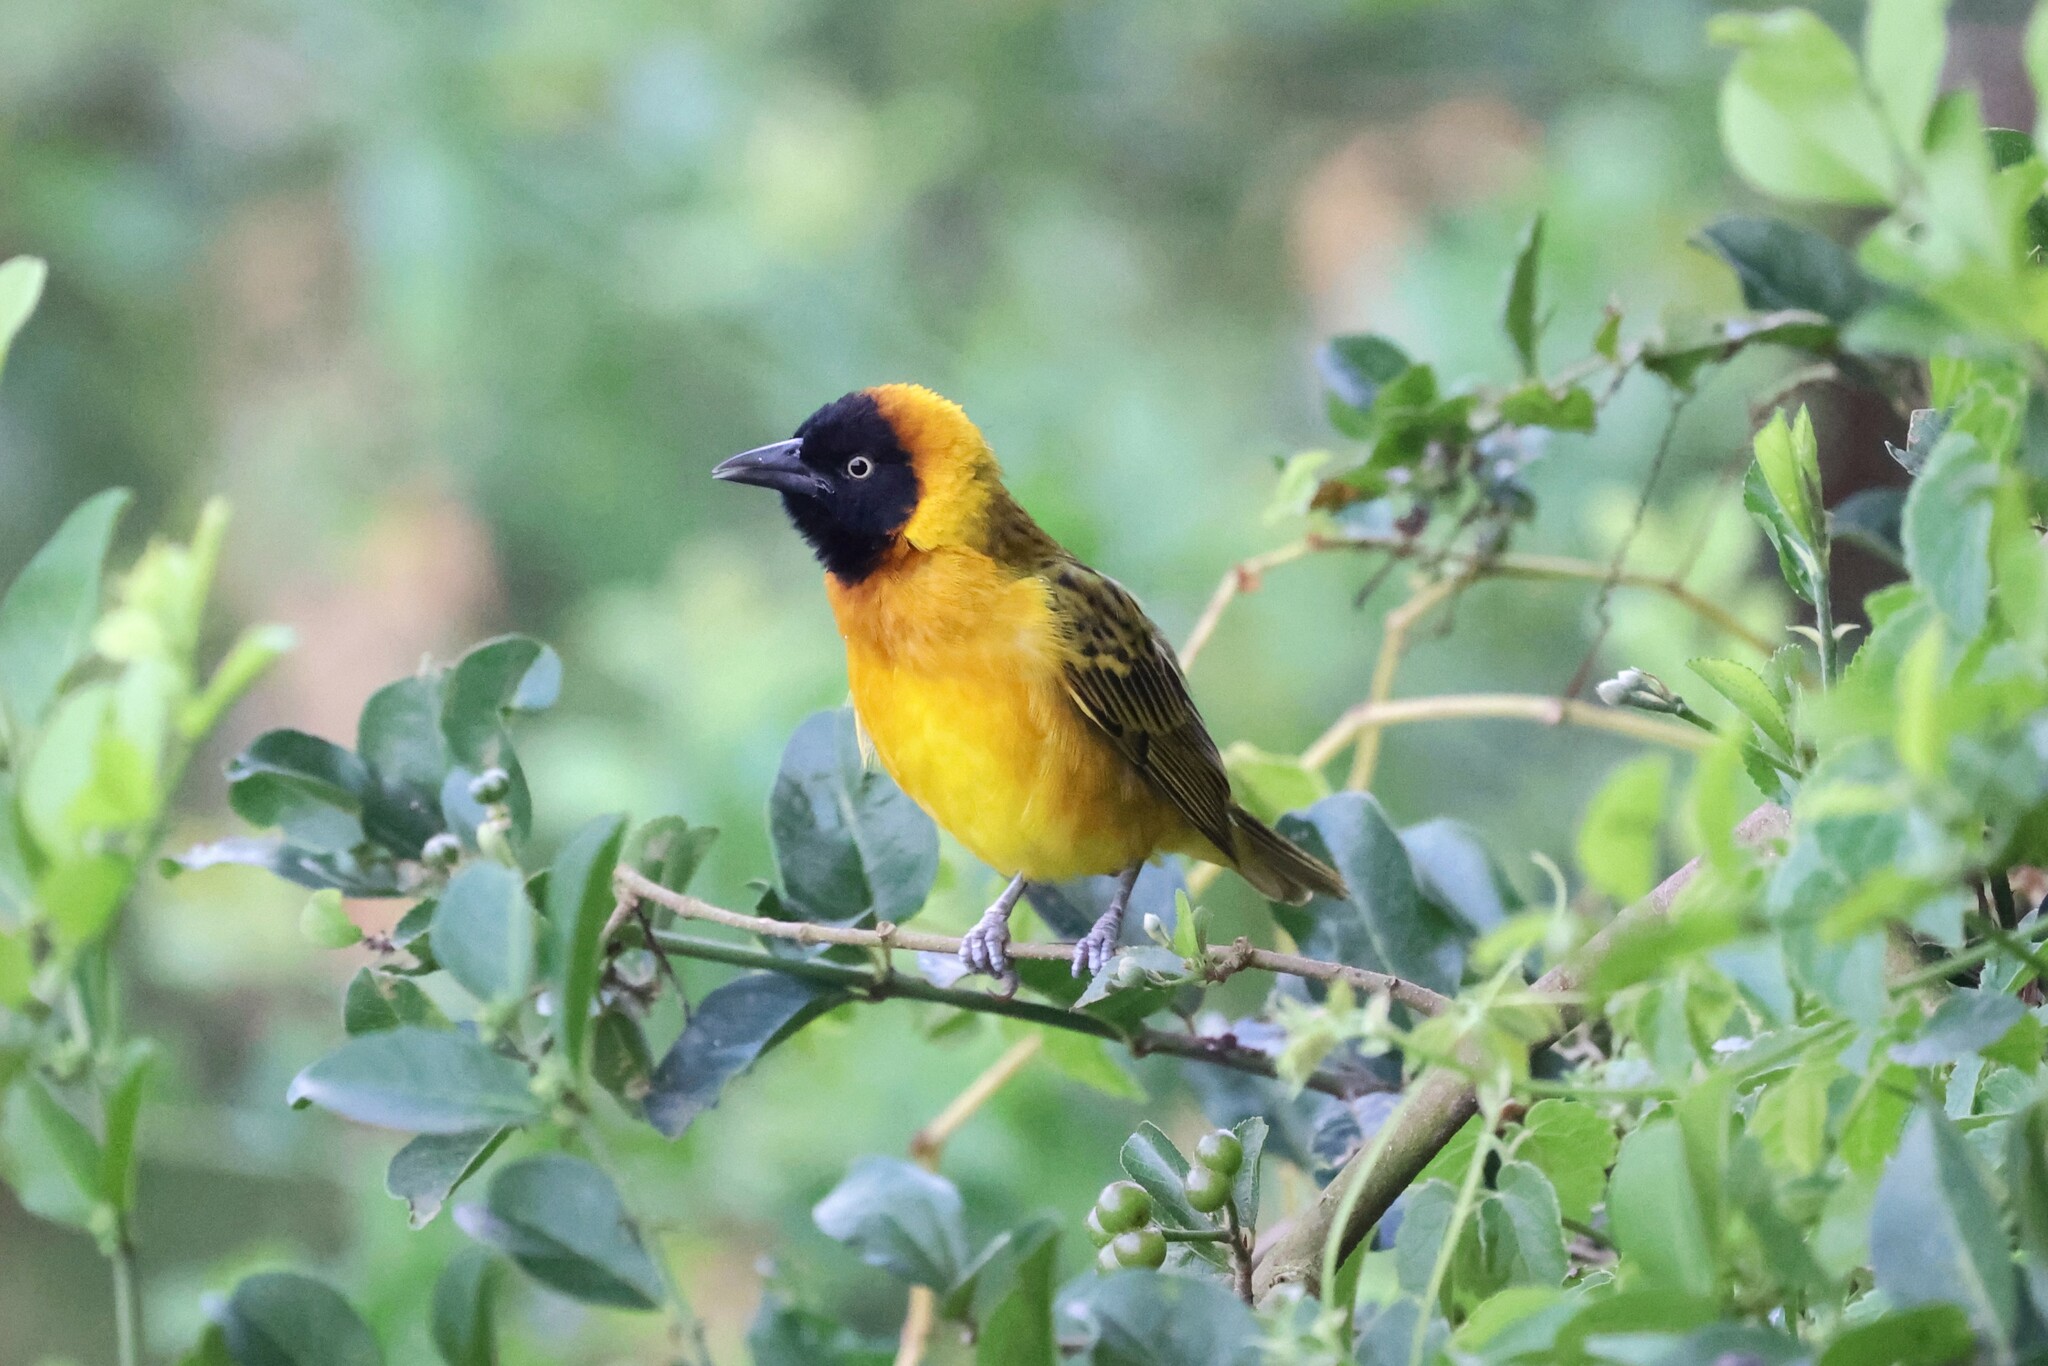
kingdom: Animalia
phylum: Chordata
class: Aves
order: Passeriformes
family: Ploceidae
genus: Ploceus
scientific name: Ploceus intermedius
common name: Lesser masked weaver
